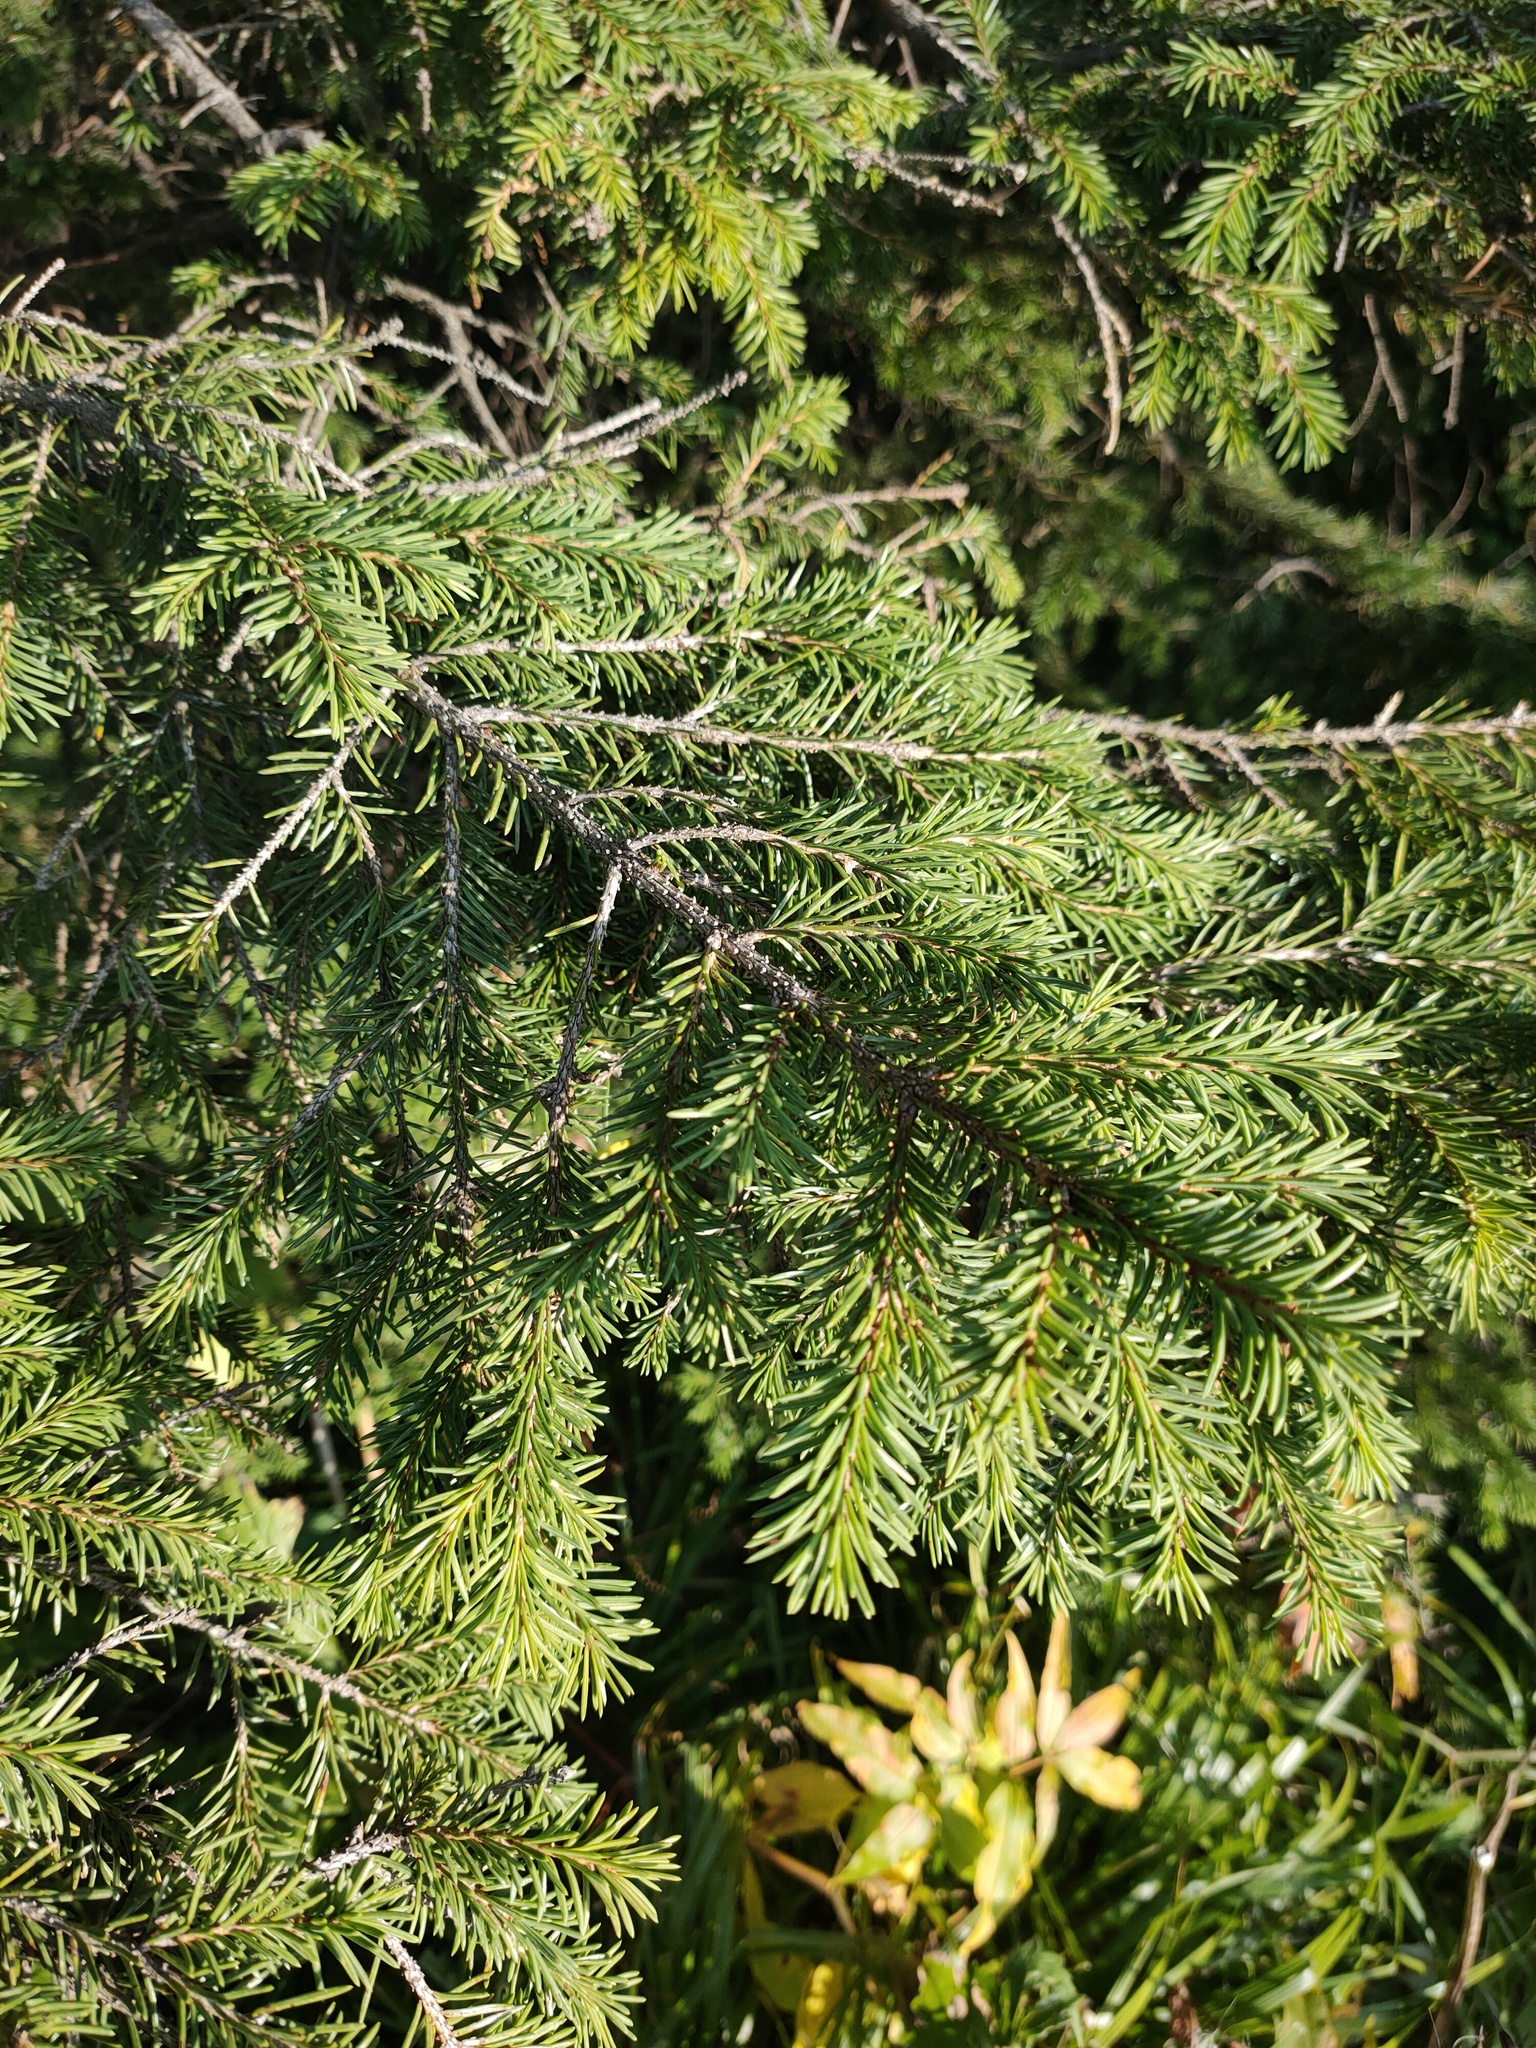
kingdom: Plantae
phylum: Tracheophyta
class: Pinopsida
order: Pinales
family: Pinaceae
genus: Picea
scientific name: Picea
